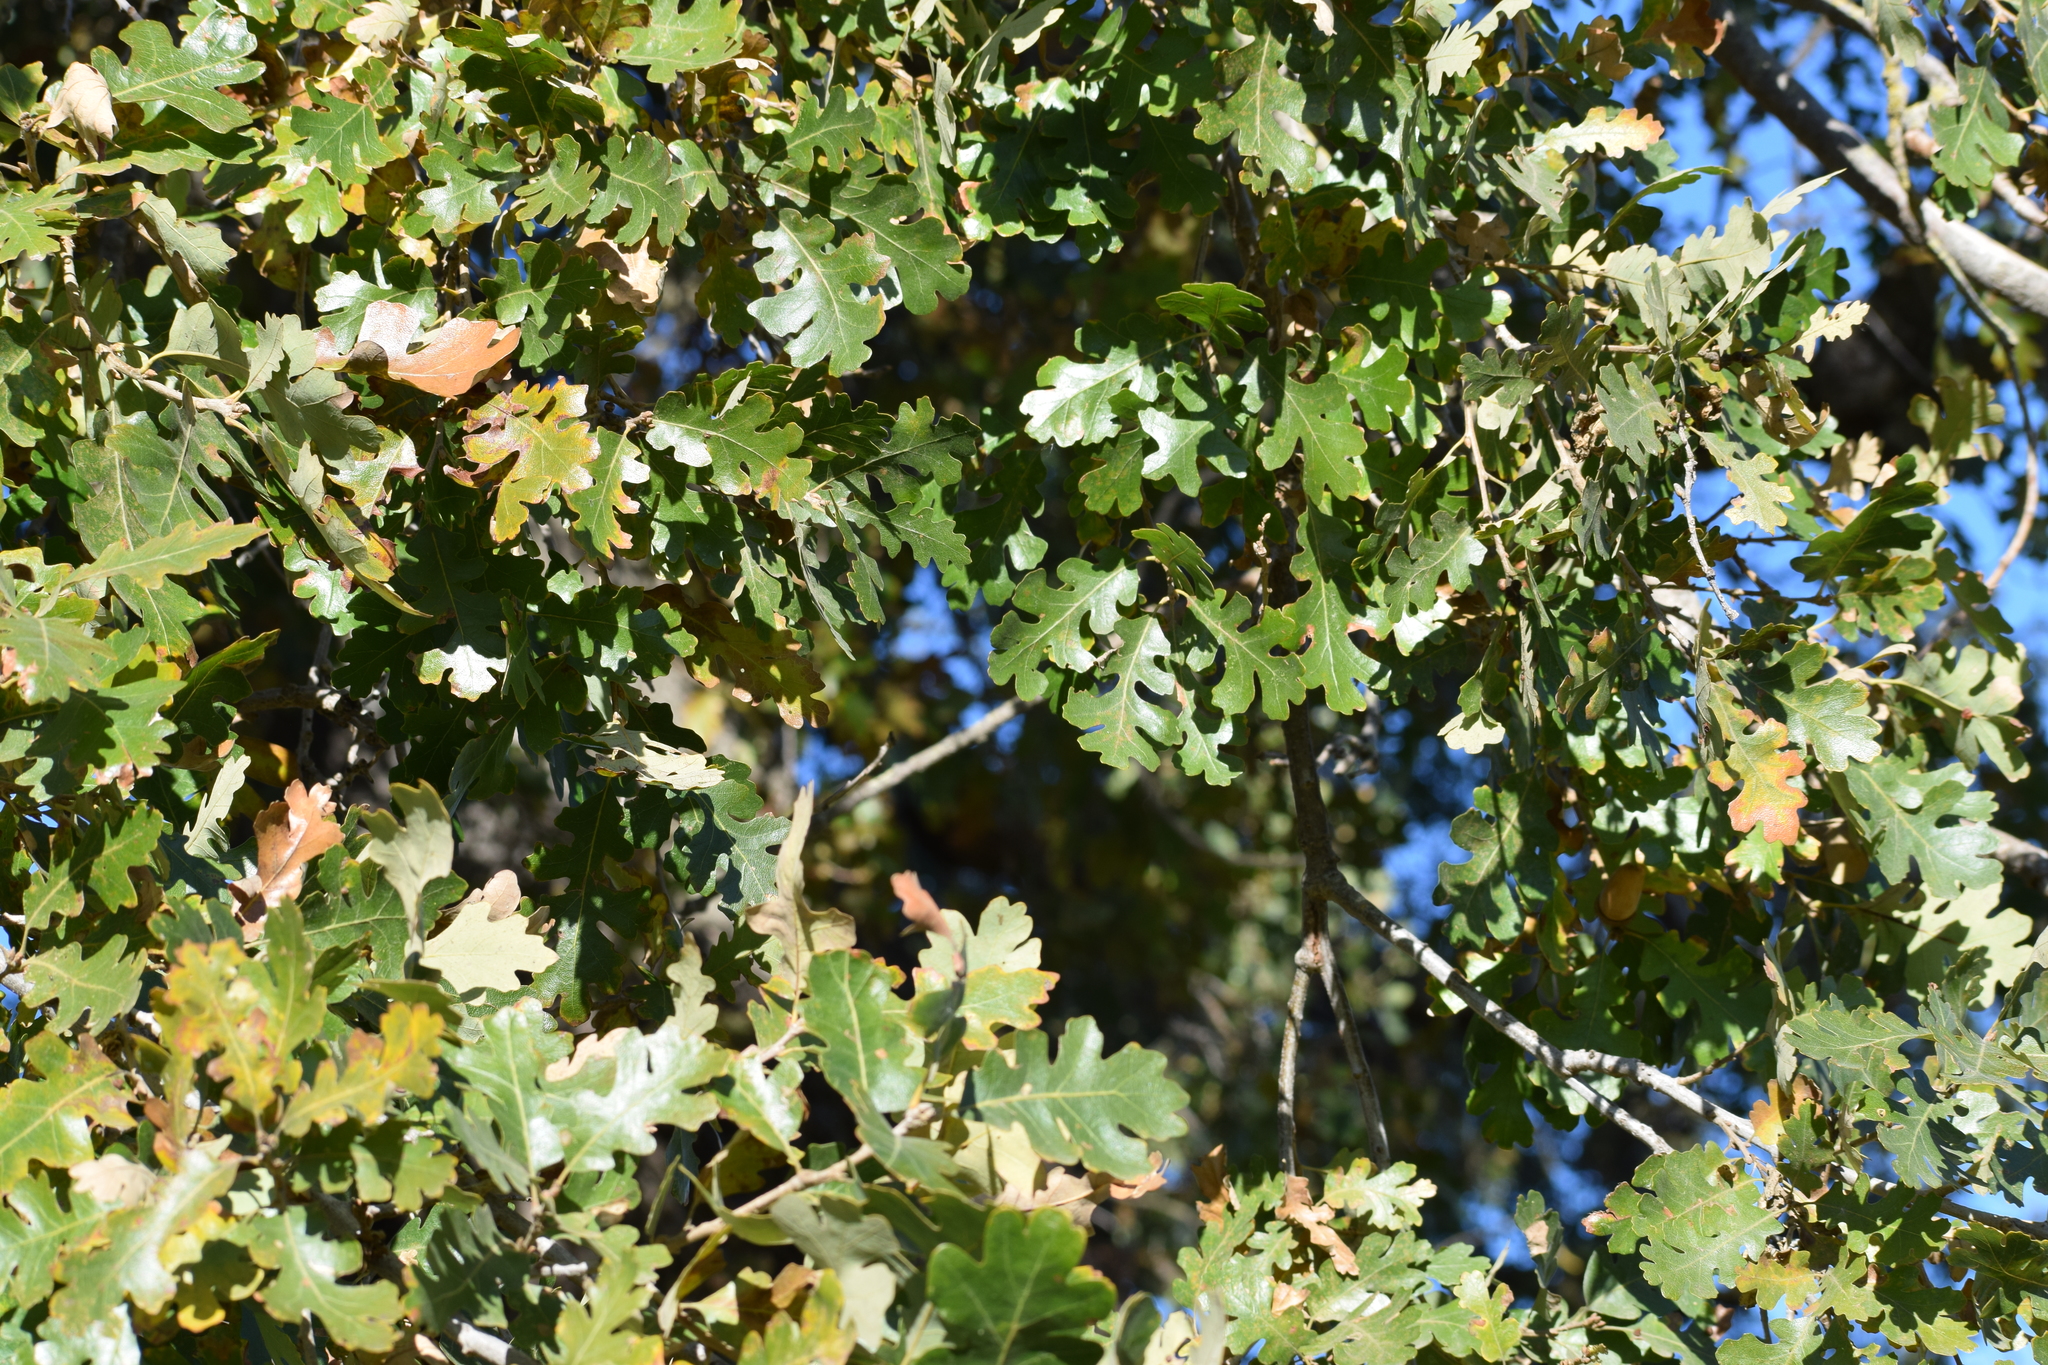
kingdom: Plantae
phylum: Tracheophyta
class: Magnoliopsida
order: Fagales
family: Fagaceae
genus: Quercus
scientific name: Quercus lobata
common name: Valley oak
